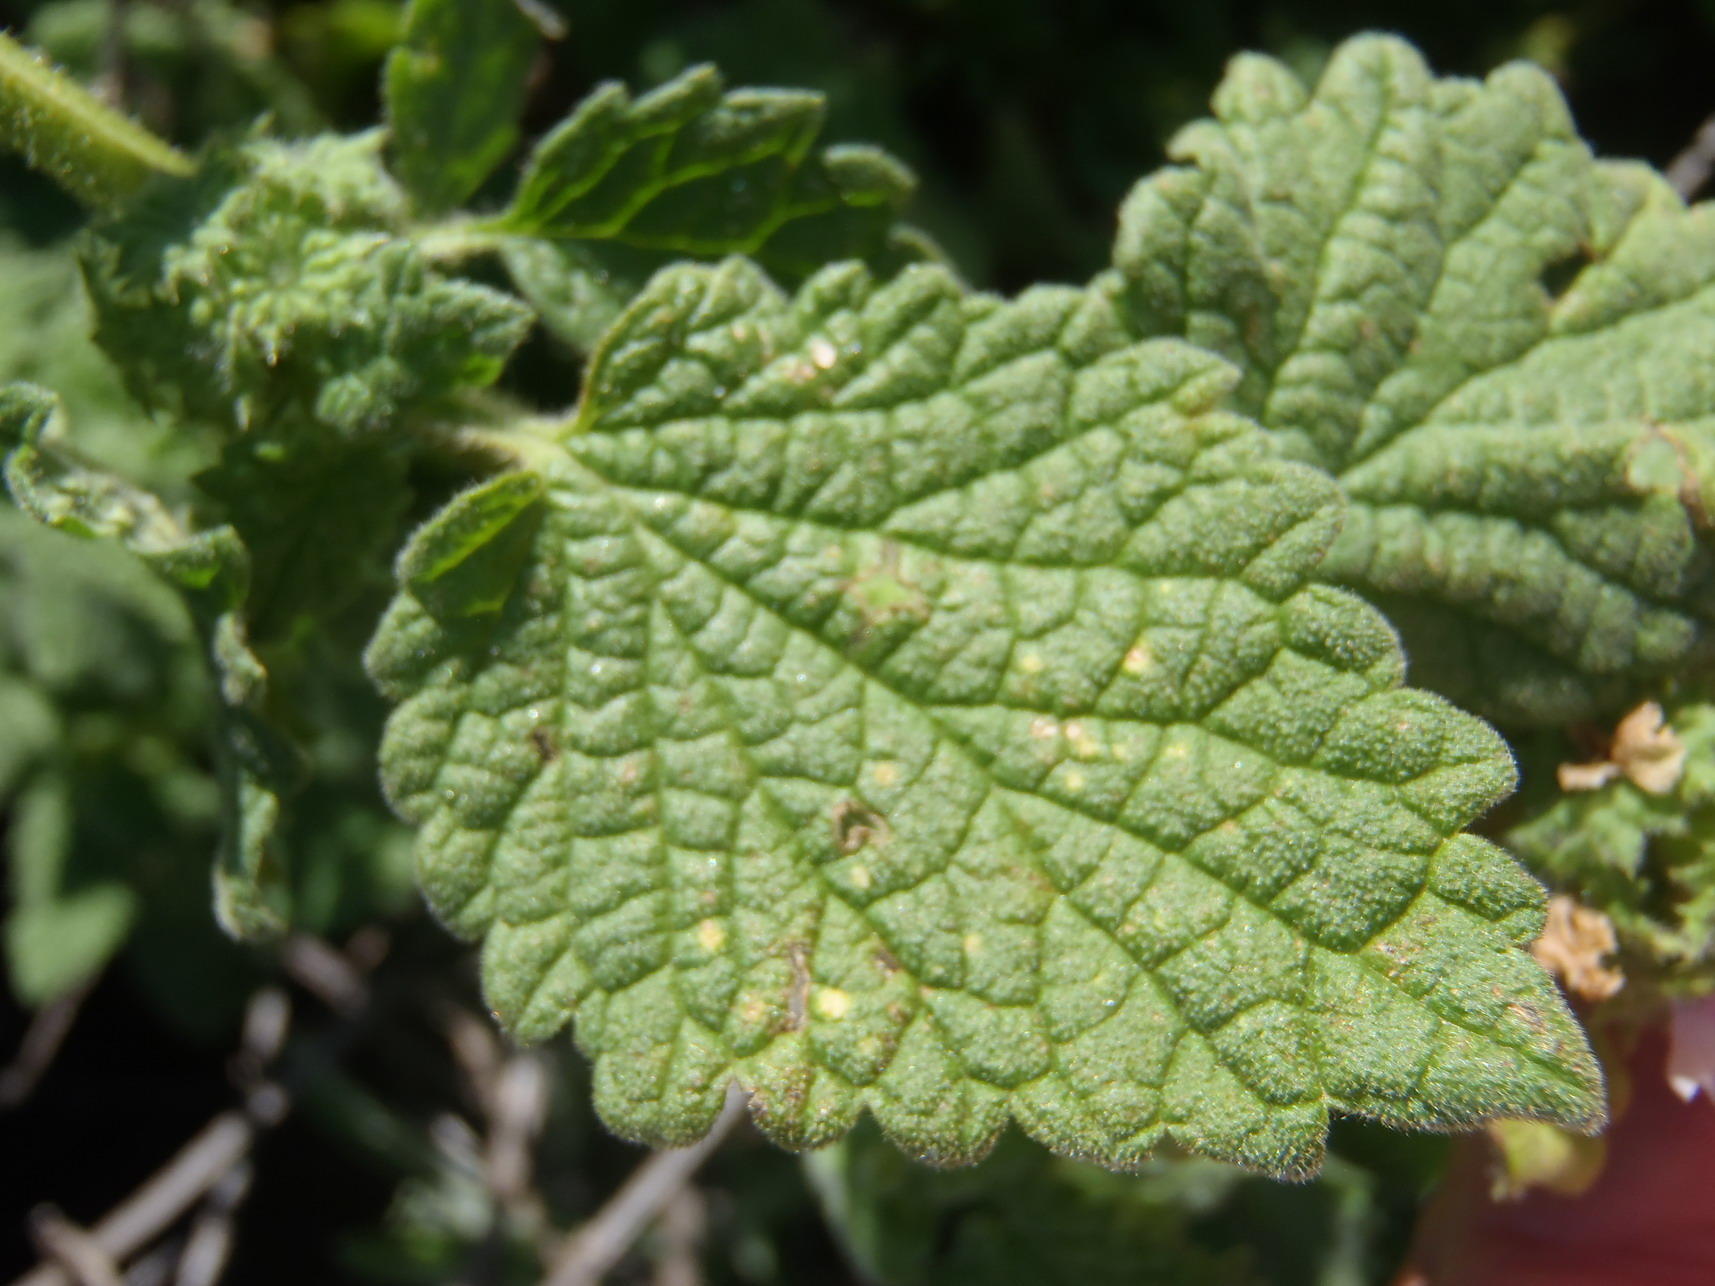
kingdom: Plantae
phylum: Tracheophyta
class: Magnoliopsida
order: Lamiales
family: Lamiaceae
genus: Pseudodictamnus
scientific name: Pseudodictamnus africanus
